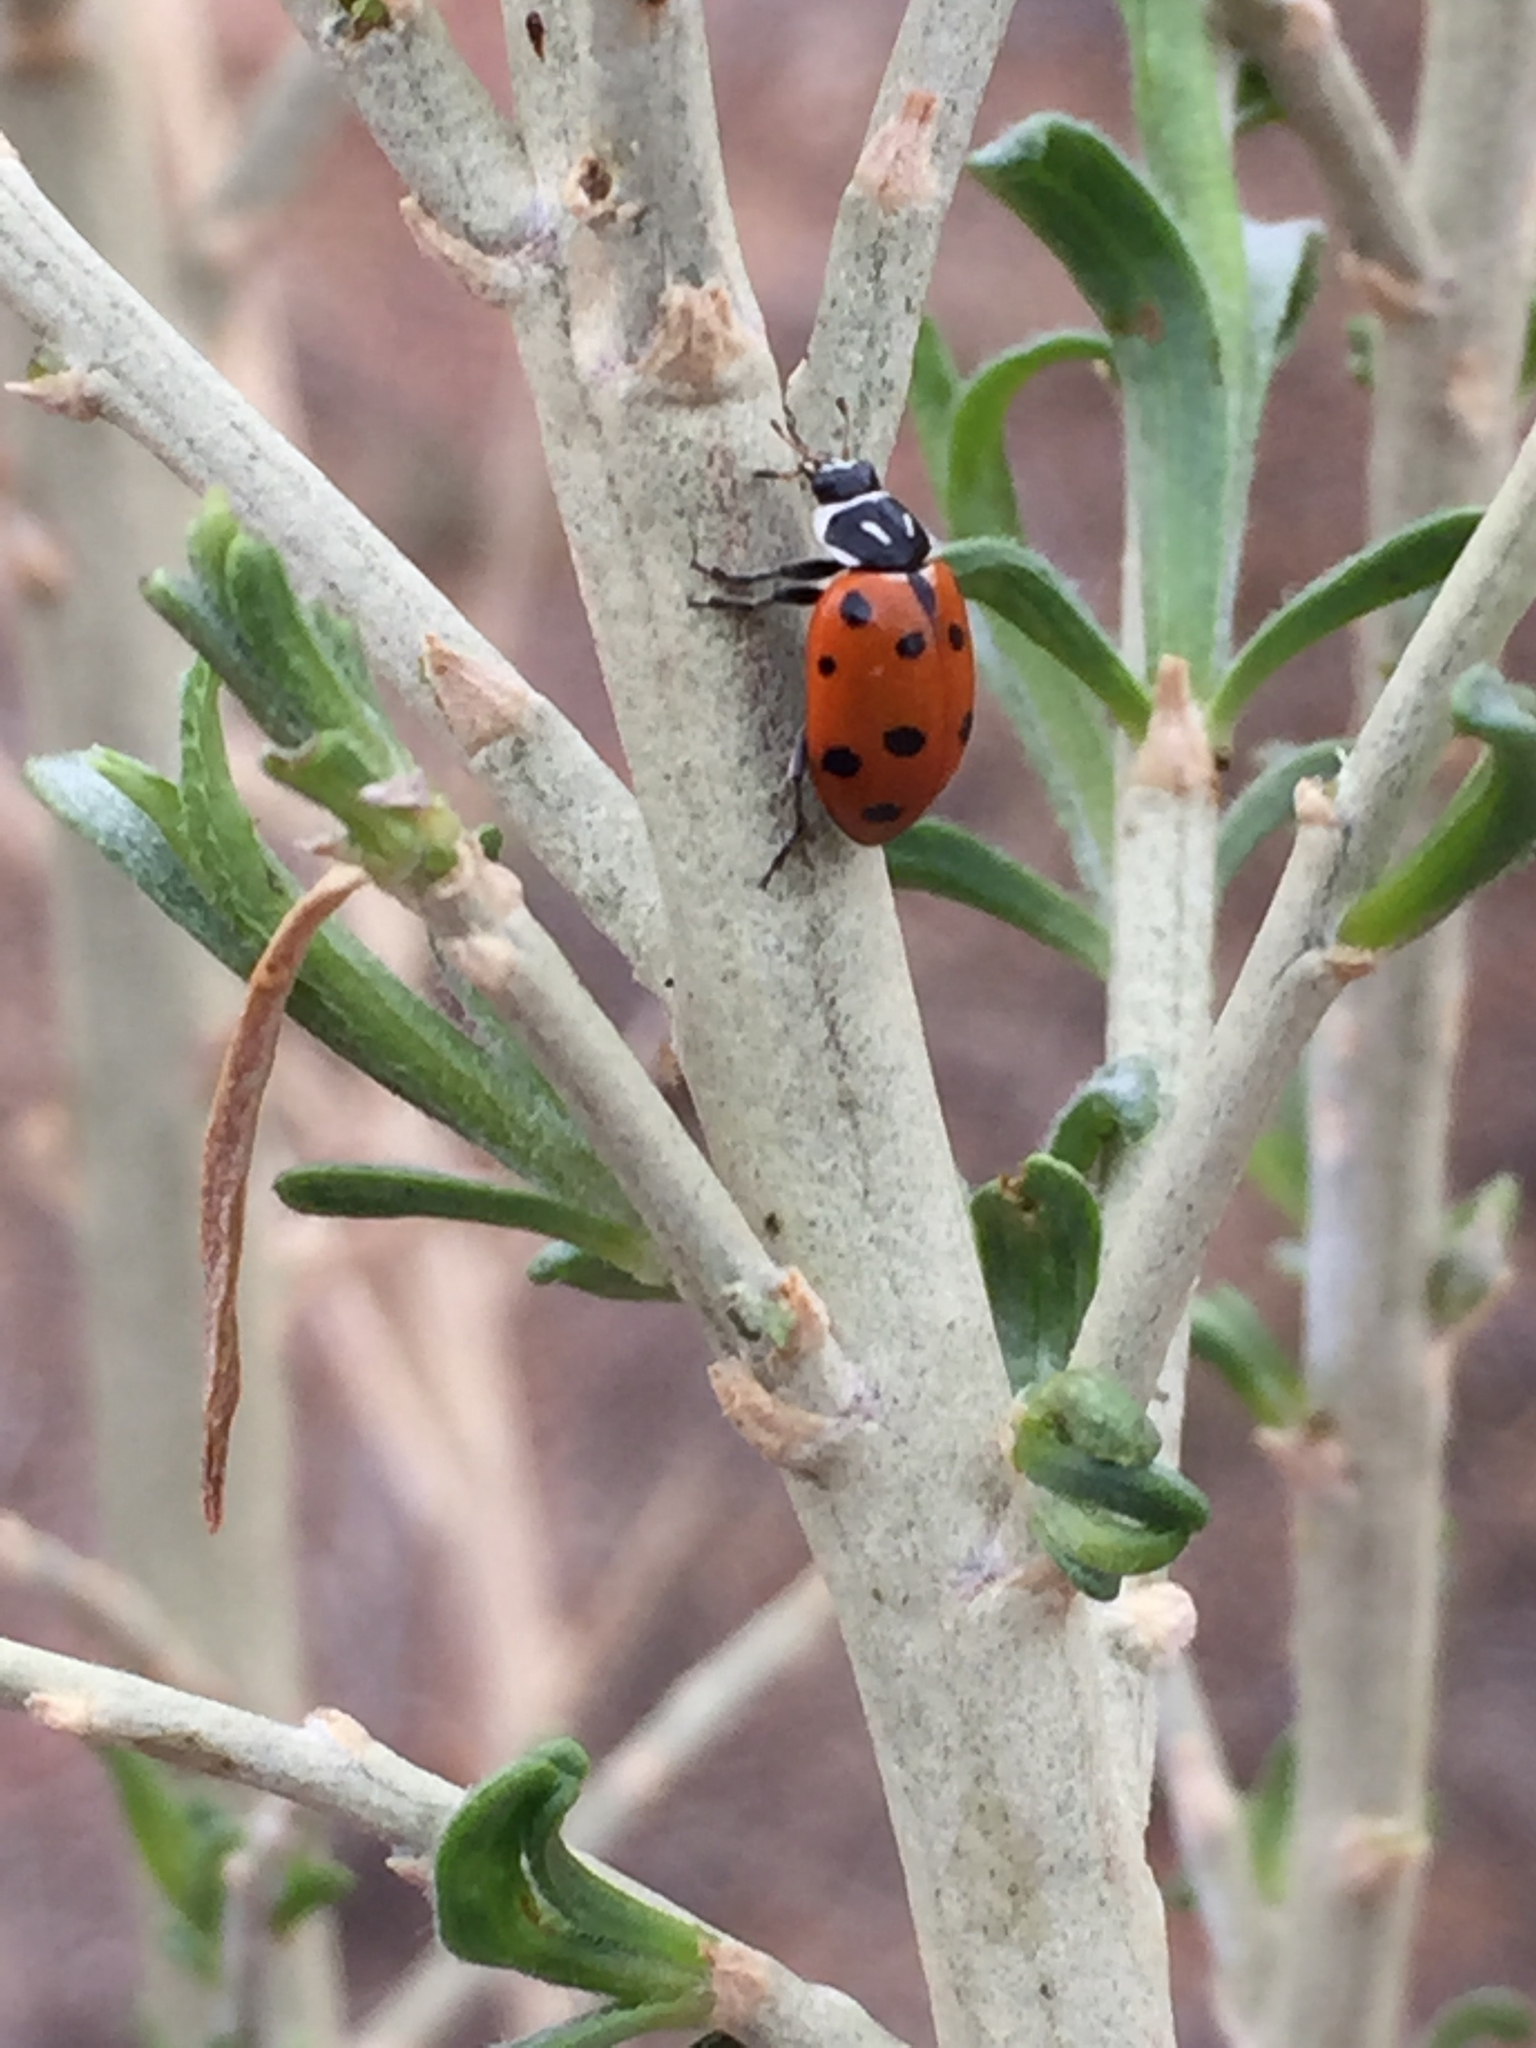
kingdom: Animalia
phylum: Arthropoda
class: Insecta
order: Coleoptera
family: Coccinellidae
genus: Hippodamia
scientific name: Hippodamia convergens
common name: Convergent lady beetle
